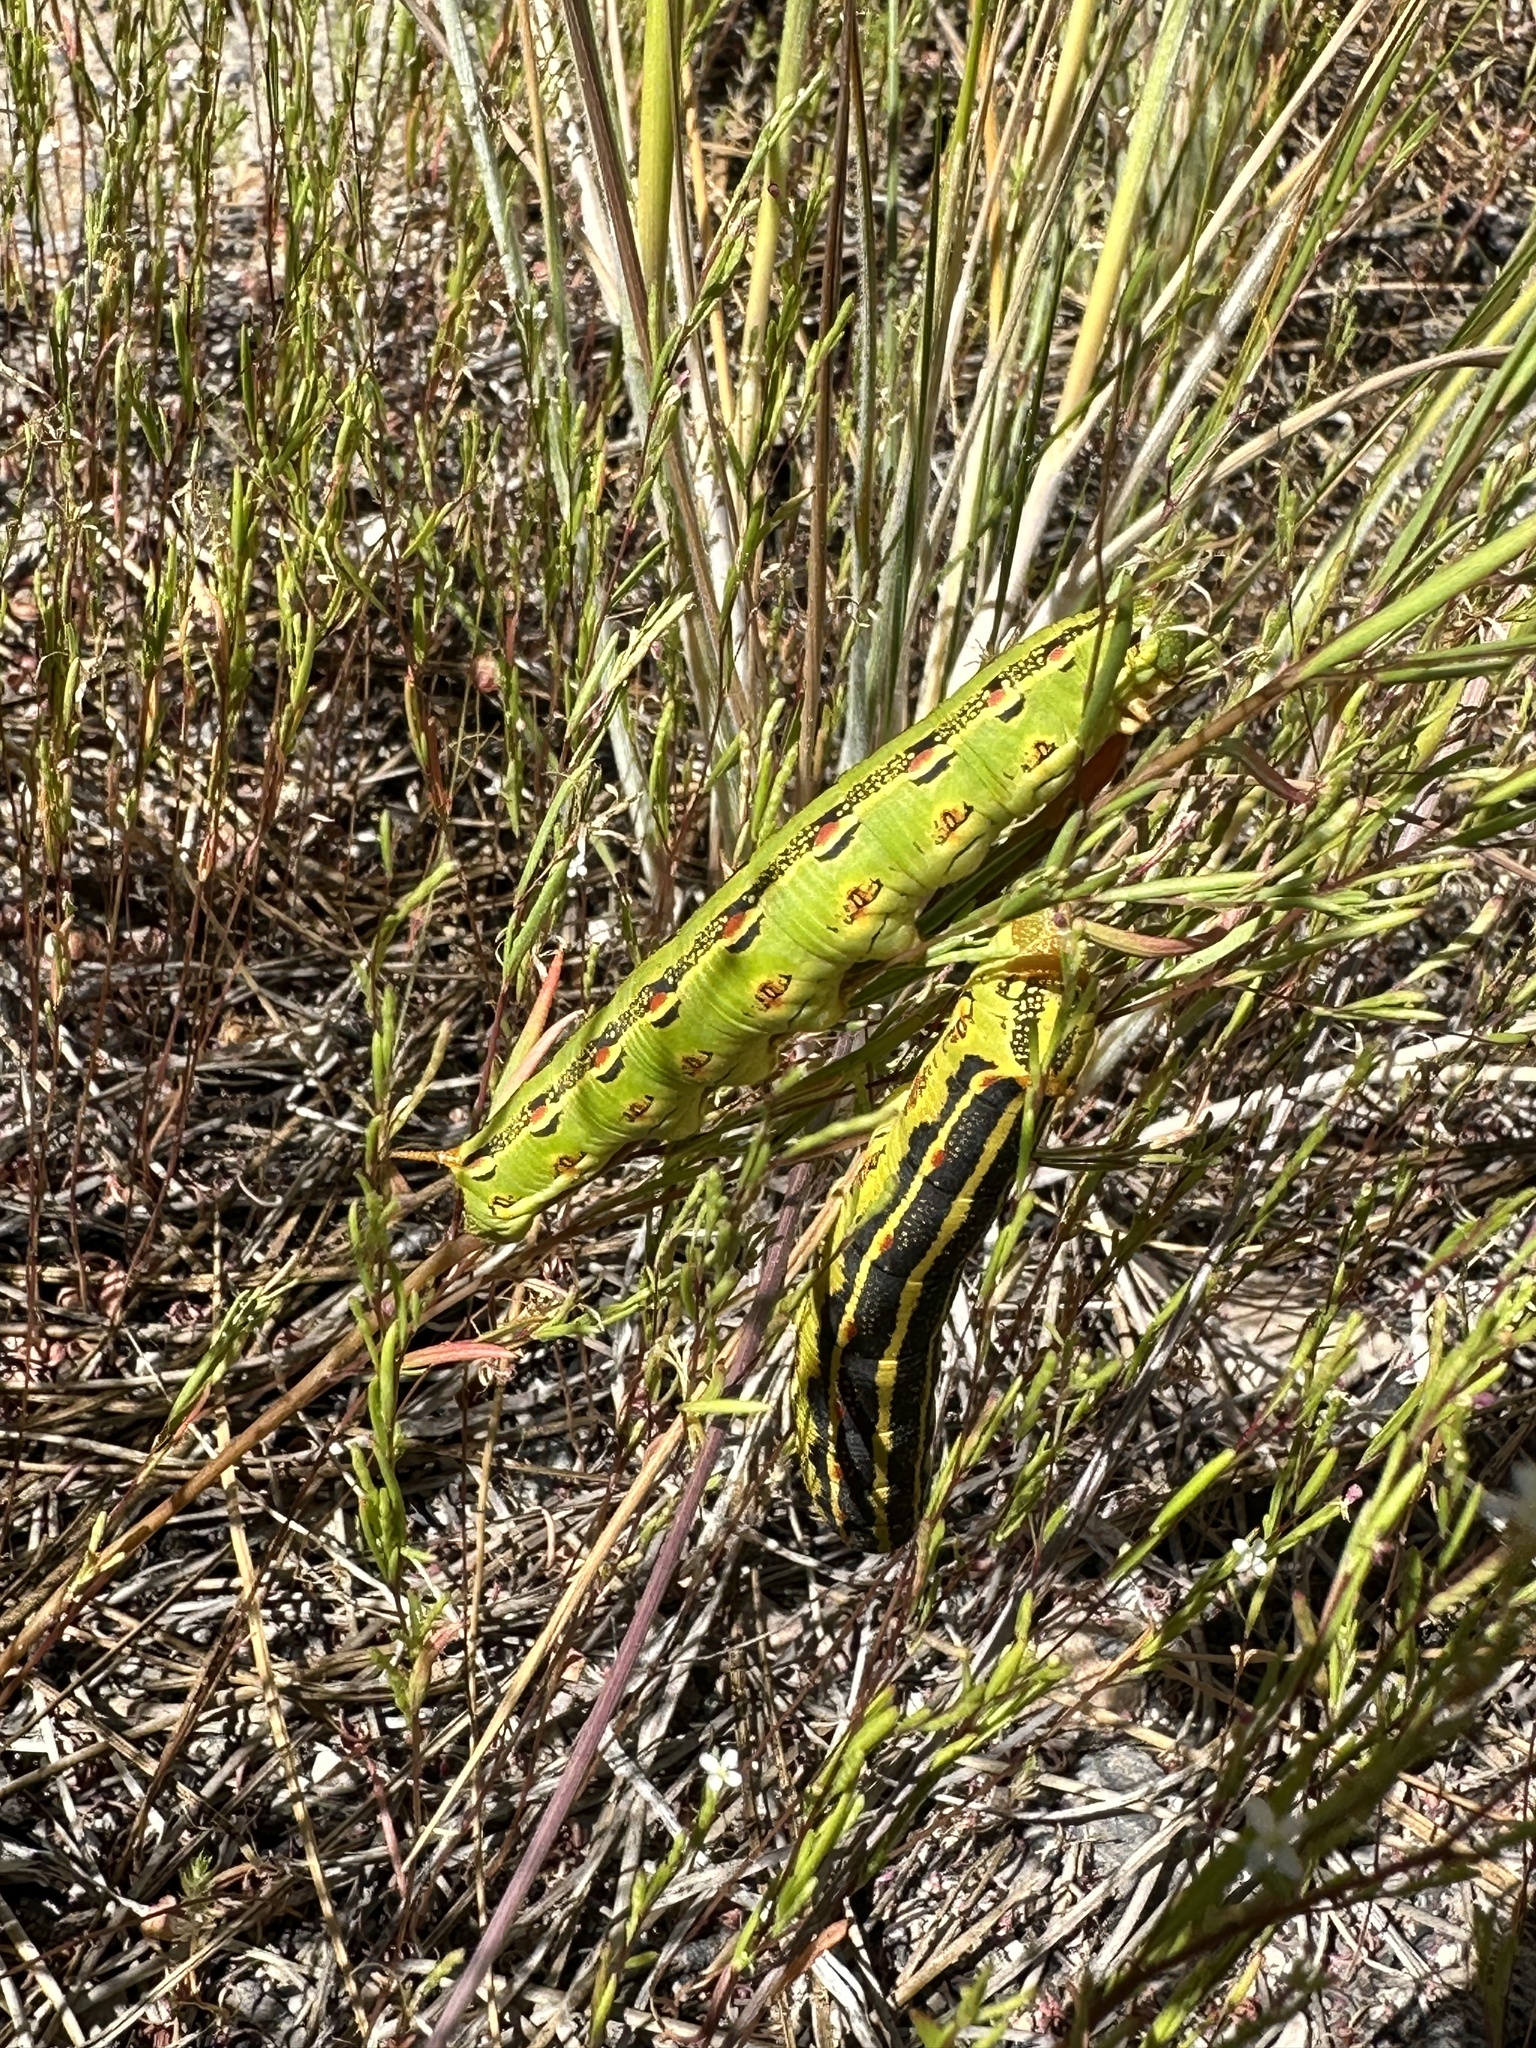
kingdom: Animalia
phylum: Arthropoda
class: Insecta
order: Lepidoptera
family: Sphingidae
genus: Hyles
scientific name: Hyles lineata
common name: White-lined sphinx
